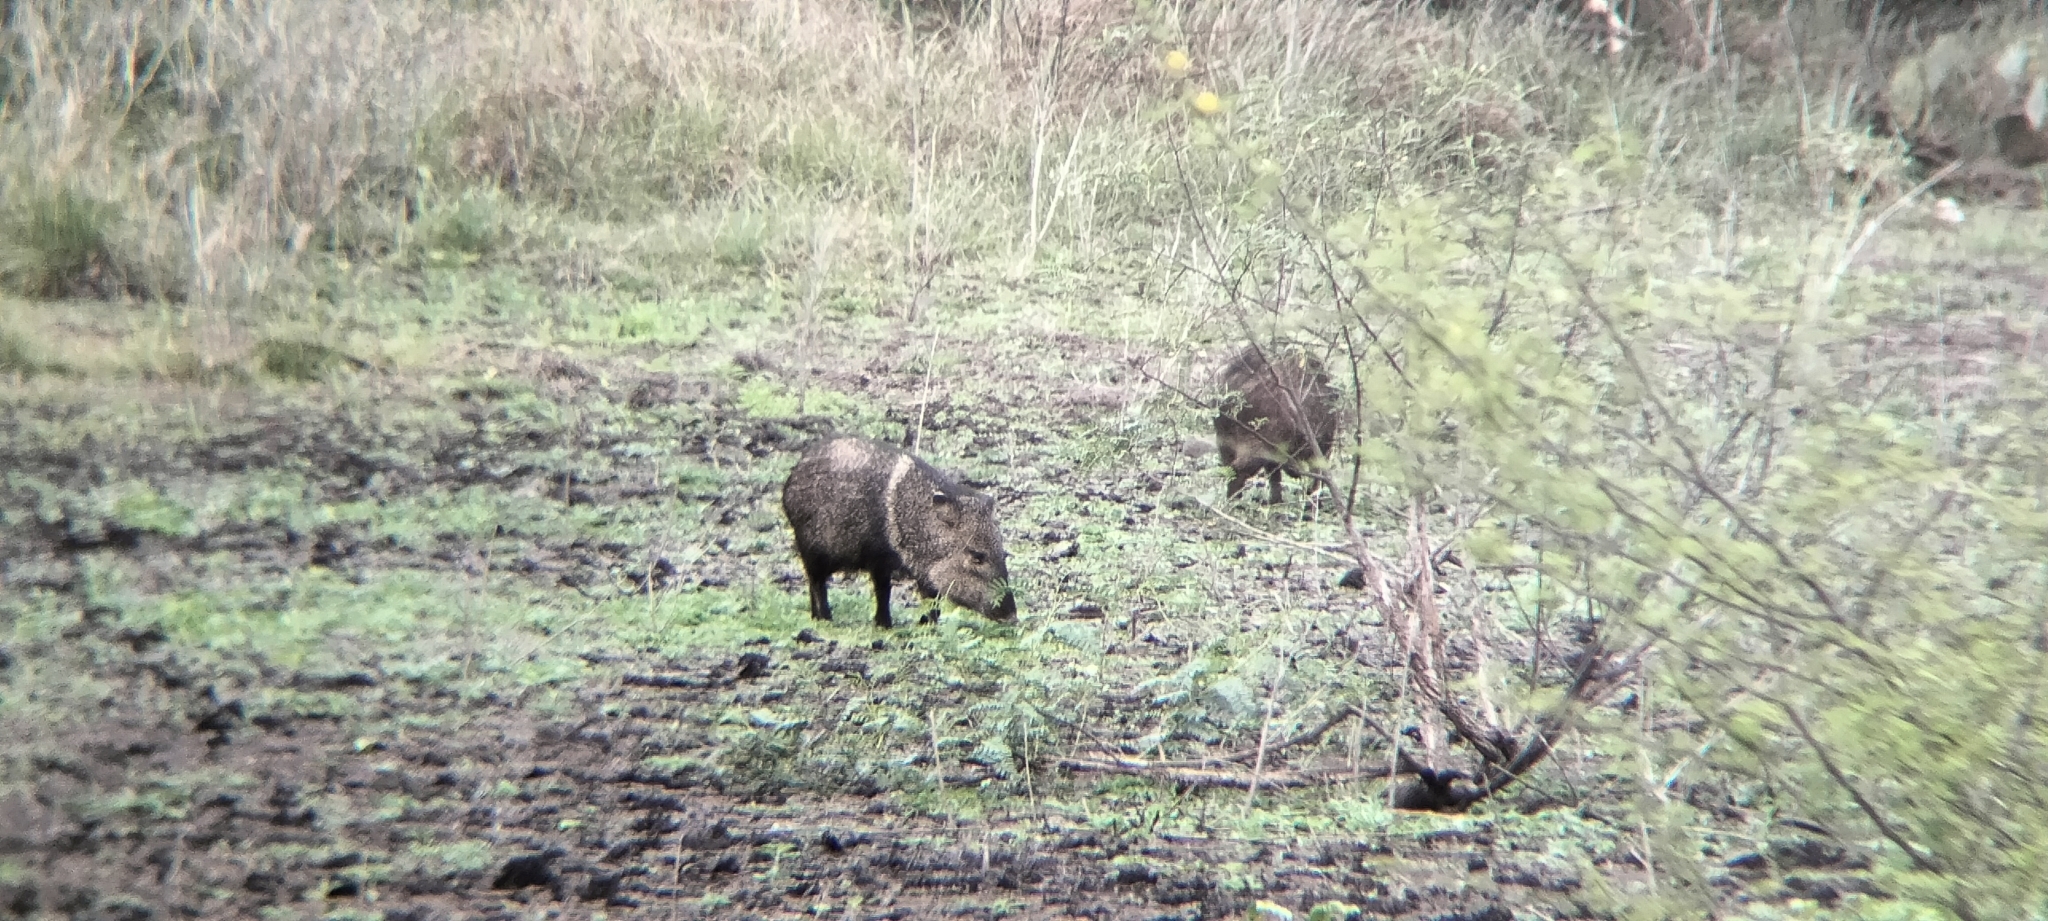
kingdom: Animalia
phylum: Chordata
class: Mammalia
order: Artiodactyla
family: Tayassuidae
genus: Pecari
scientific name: Pecari tajacu
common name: Collared peccary
